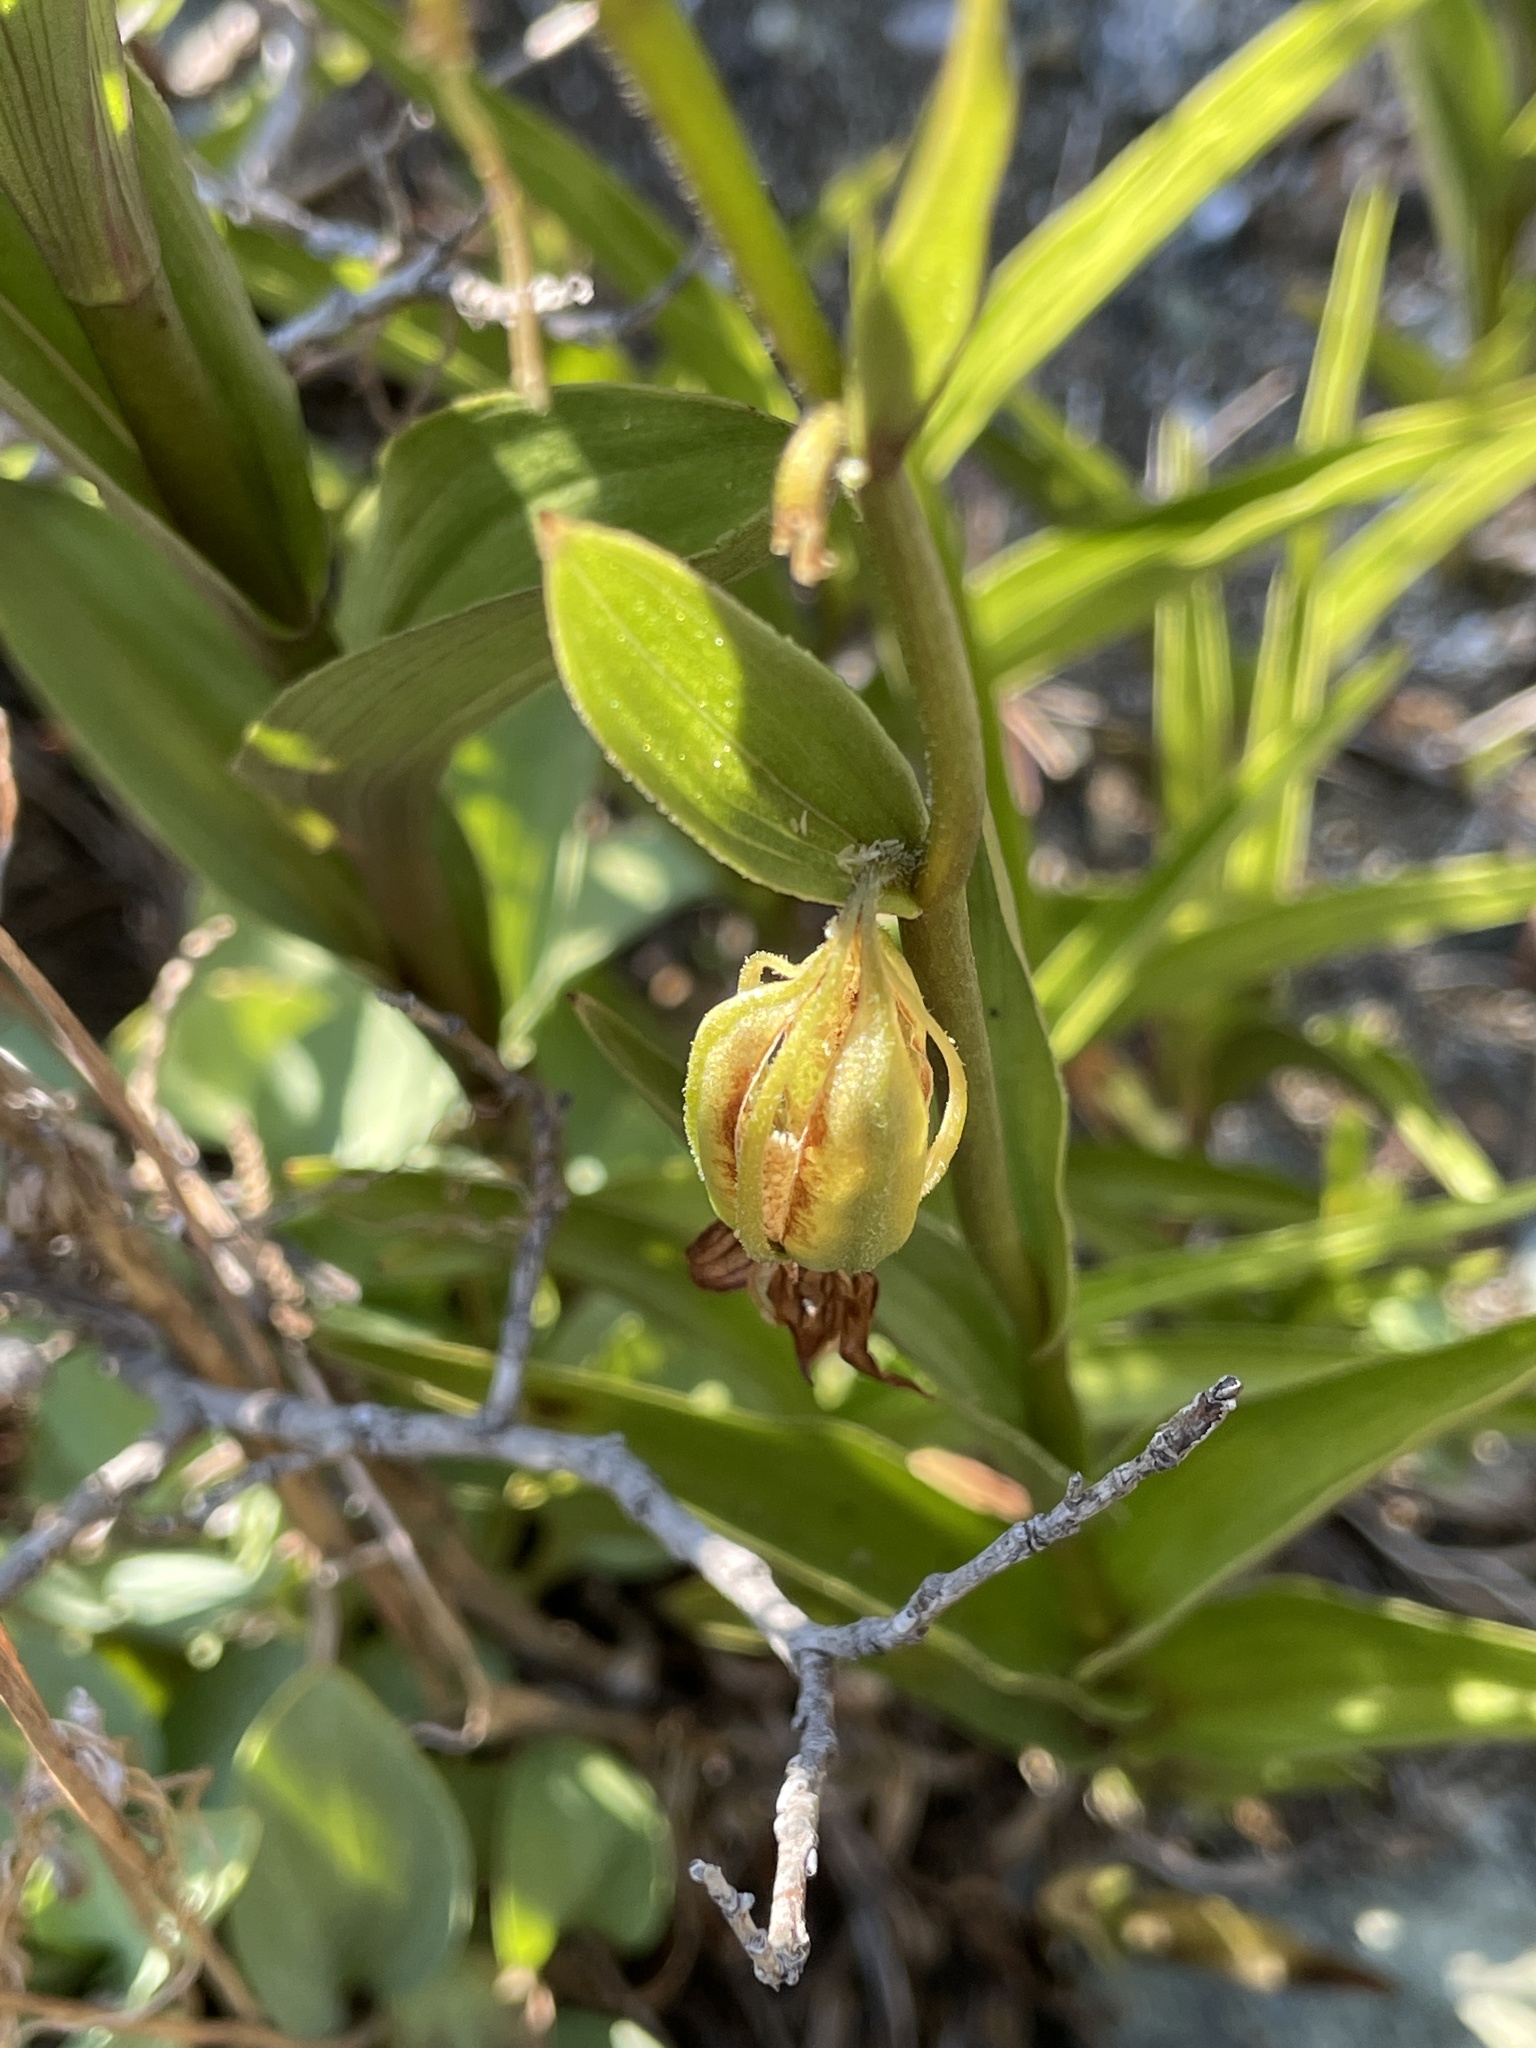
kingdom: Plantae
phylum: Tracheophyta
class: Liliopsida
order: Asparagales
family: Orchidaceae
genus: Epipactis
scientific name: Epipactis gigantea
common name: Chatterbox
